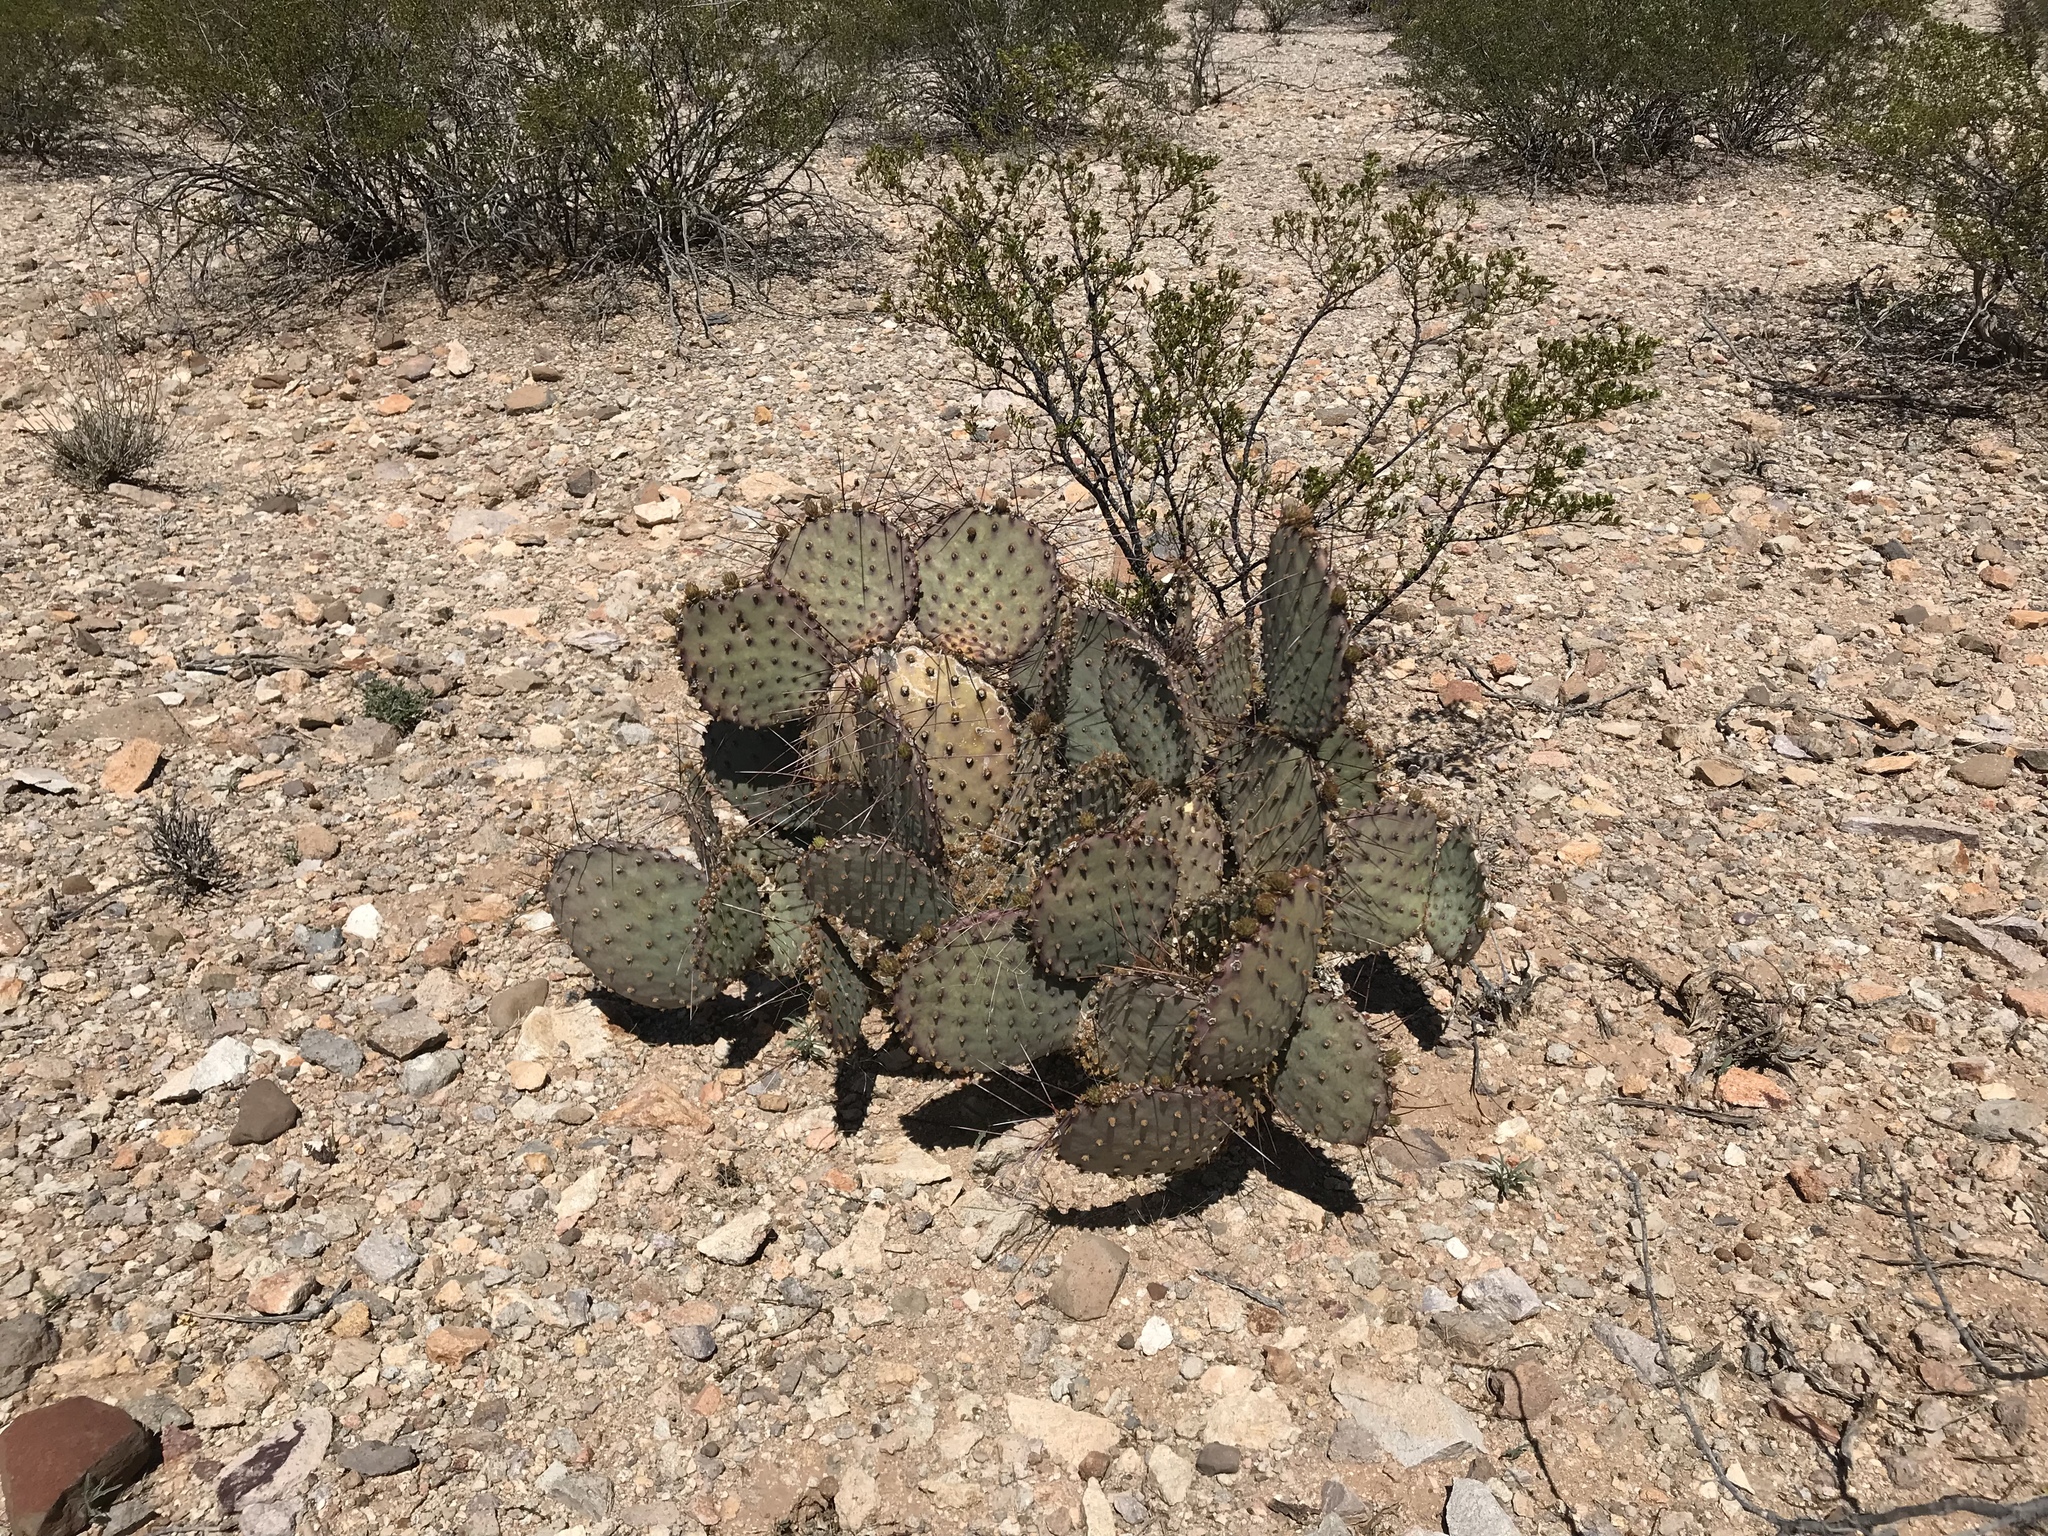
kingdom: Plantae
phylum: Tracheophyta
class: Magnoliopsida
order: Caryophyllales
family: Cactaceae
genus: Opuntia
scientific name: Opuntia macrocentra
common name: Purple prickly-pear
